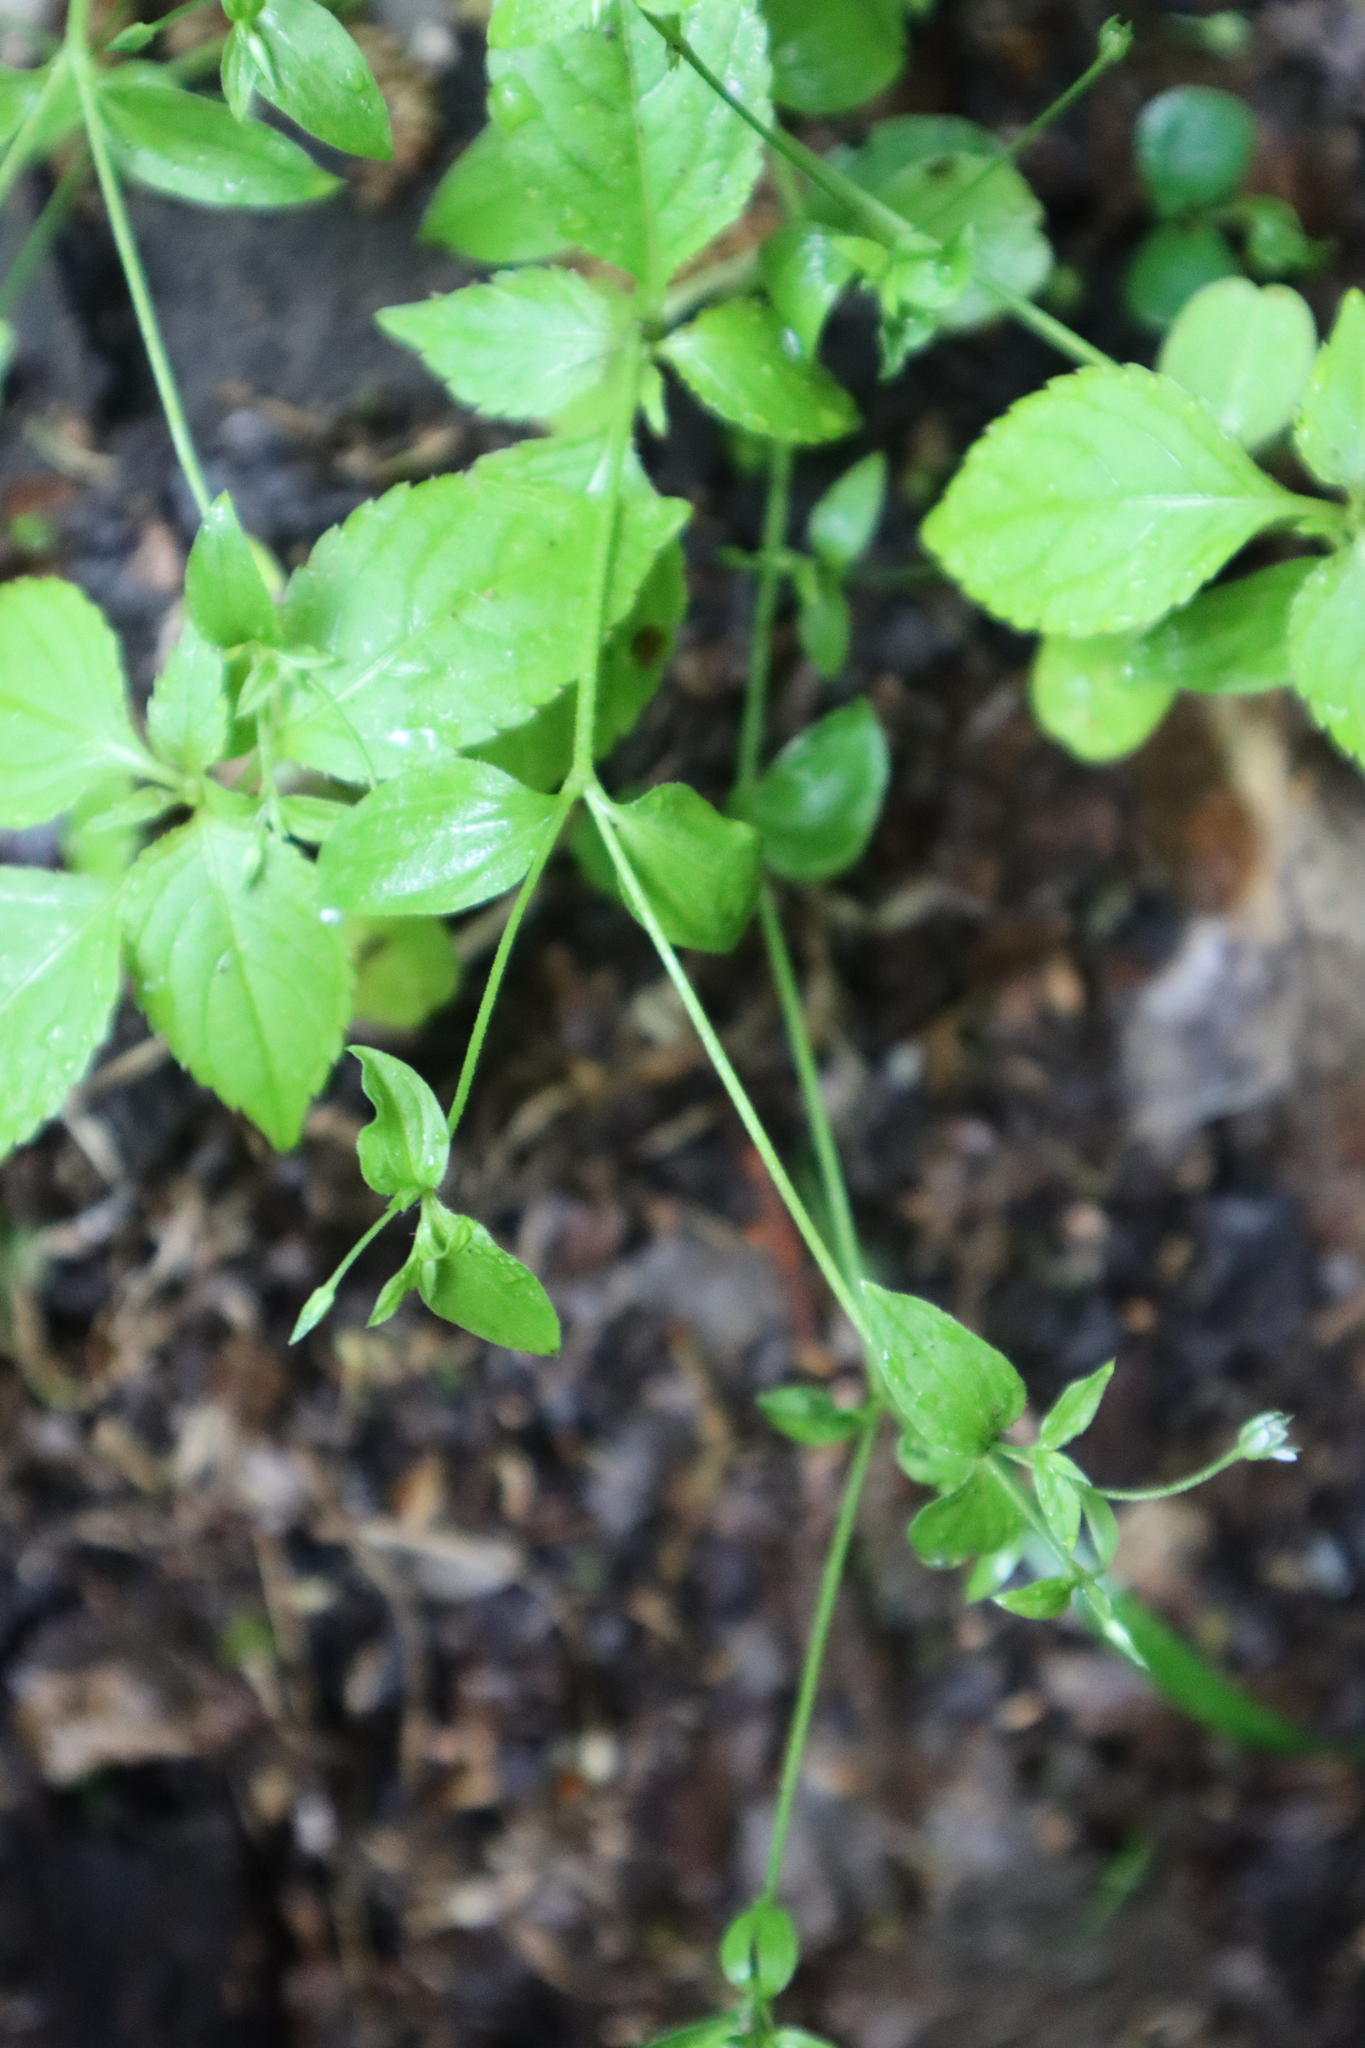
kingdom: Plantae
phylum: Tracheophyta
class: Magnoliopsida
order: Caryophyllales
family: Caryophyllaceae
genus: Moehringia
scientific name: Moehringia trinervia
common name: Three-nerved sandwort
